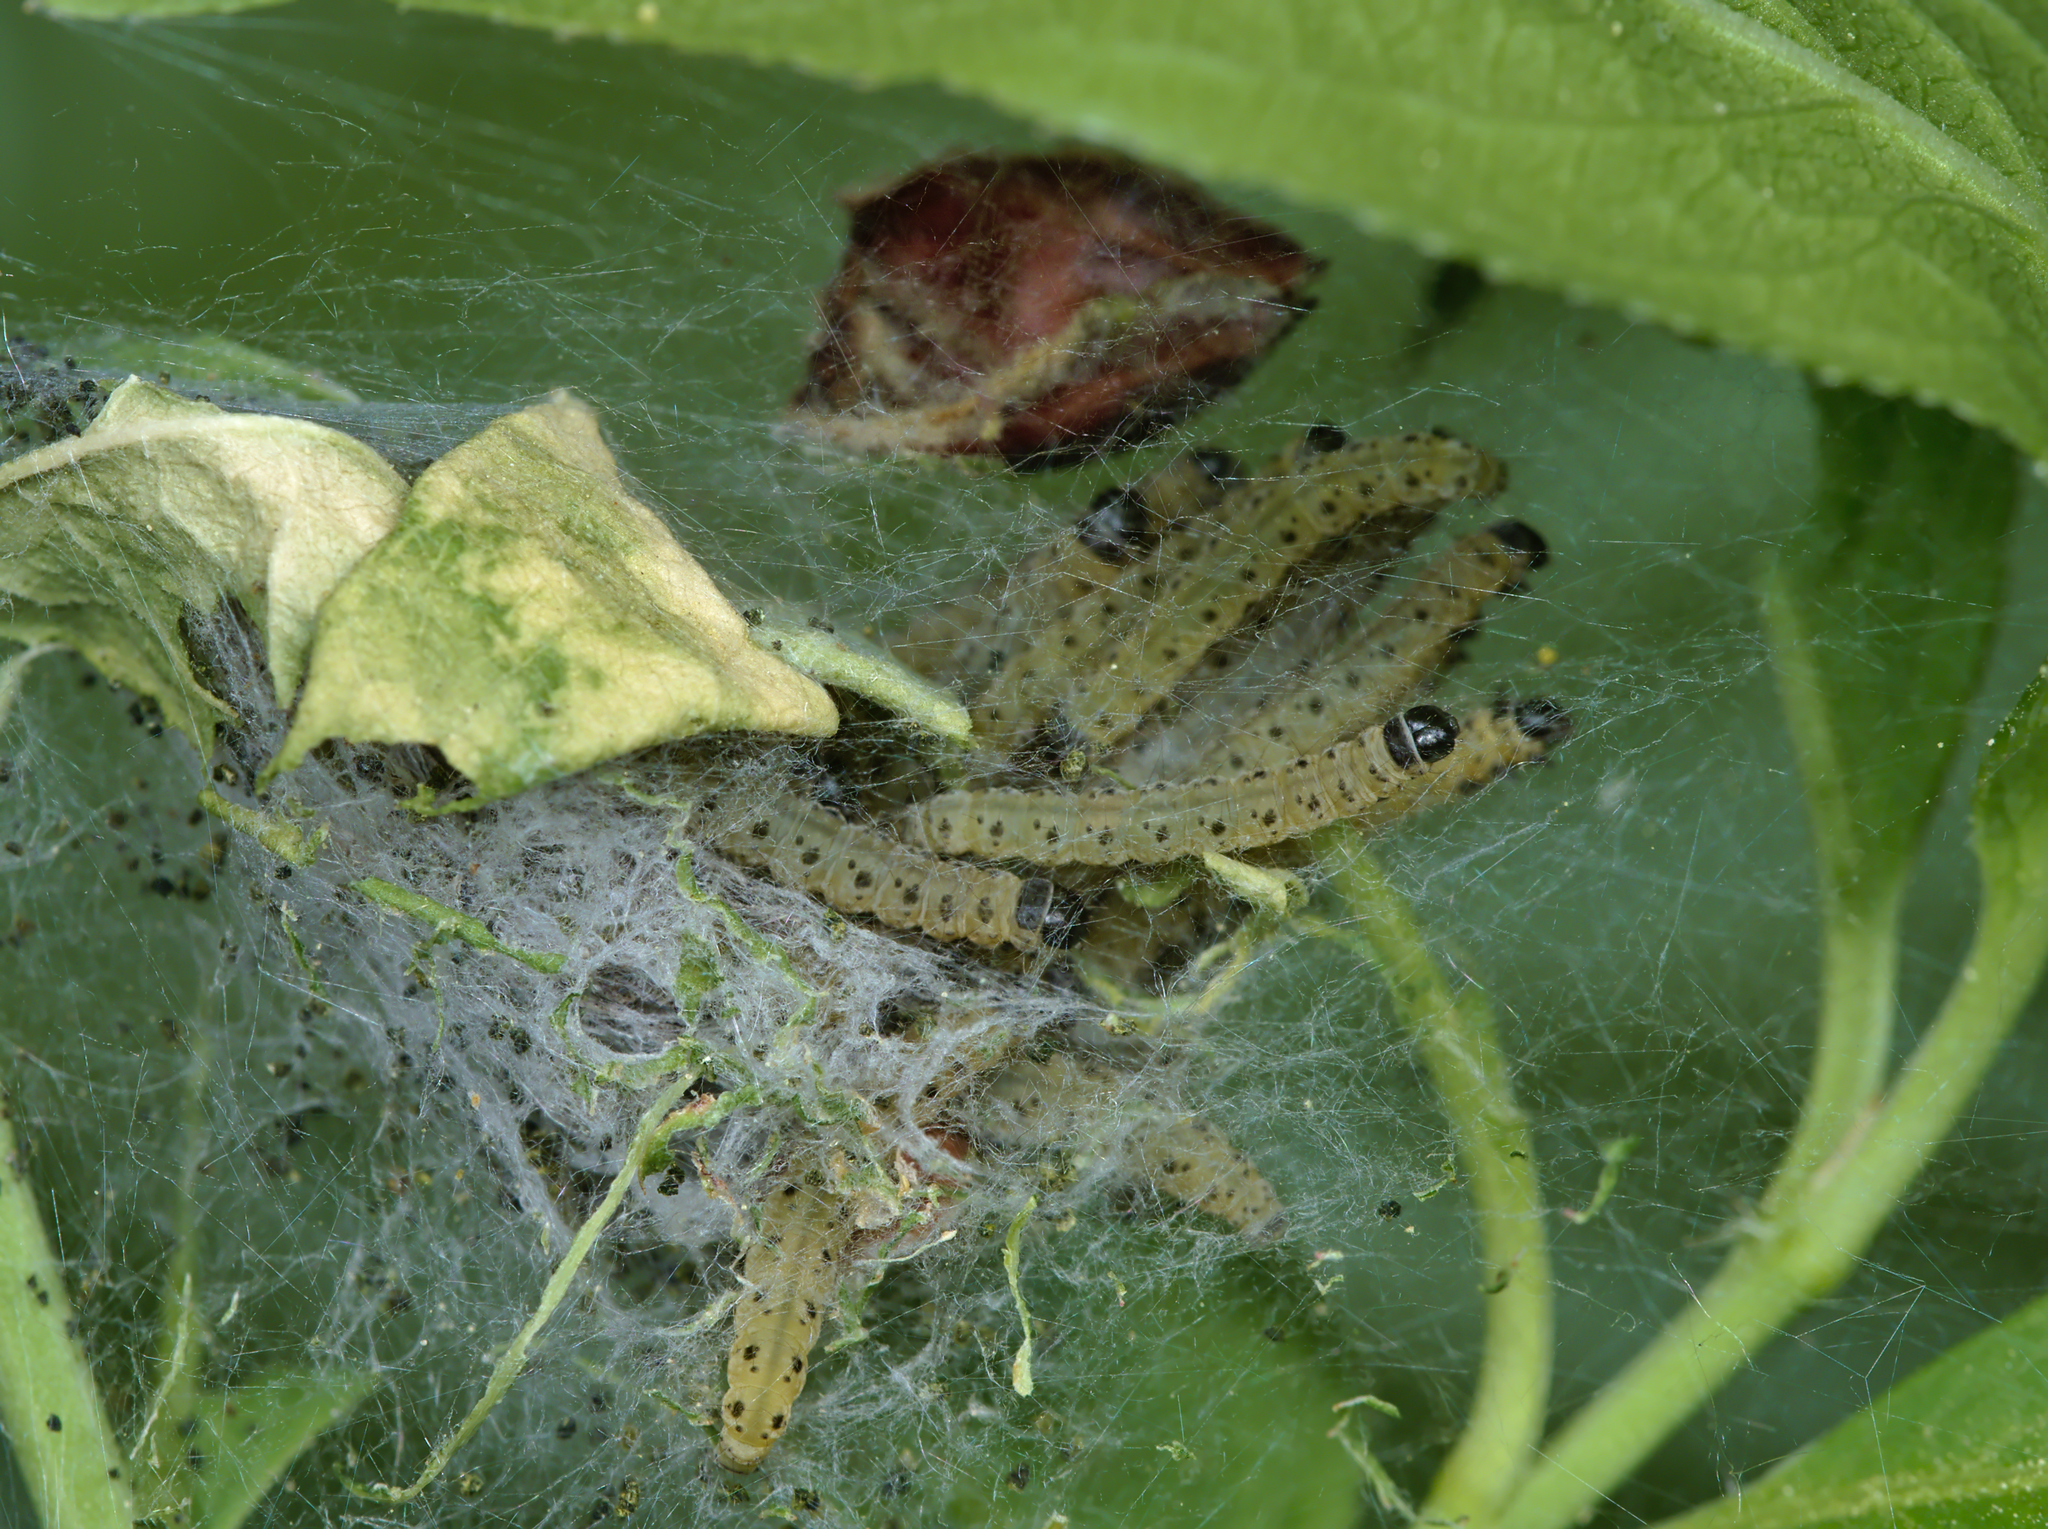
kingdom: Animalia
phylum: Arthropoda
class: Insecta
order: Lepidoptera
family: Yponomeutidae
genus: Yponomeuta
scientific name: Yponomeuta cagnagellus
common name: Spindle ermine
